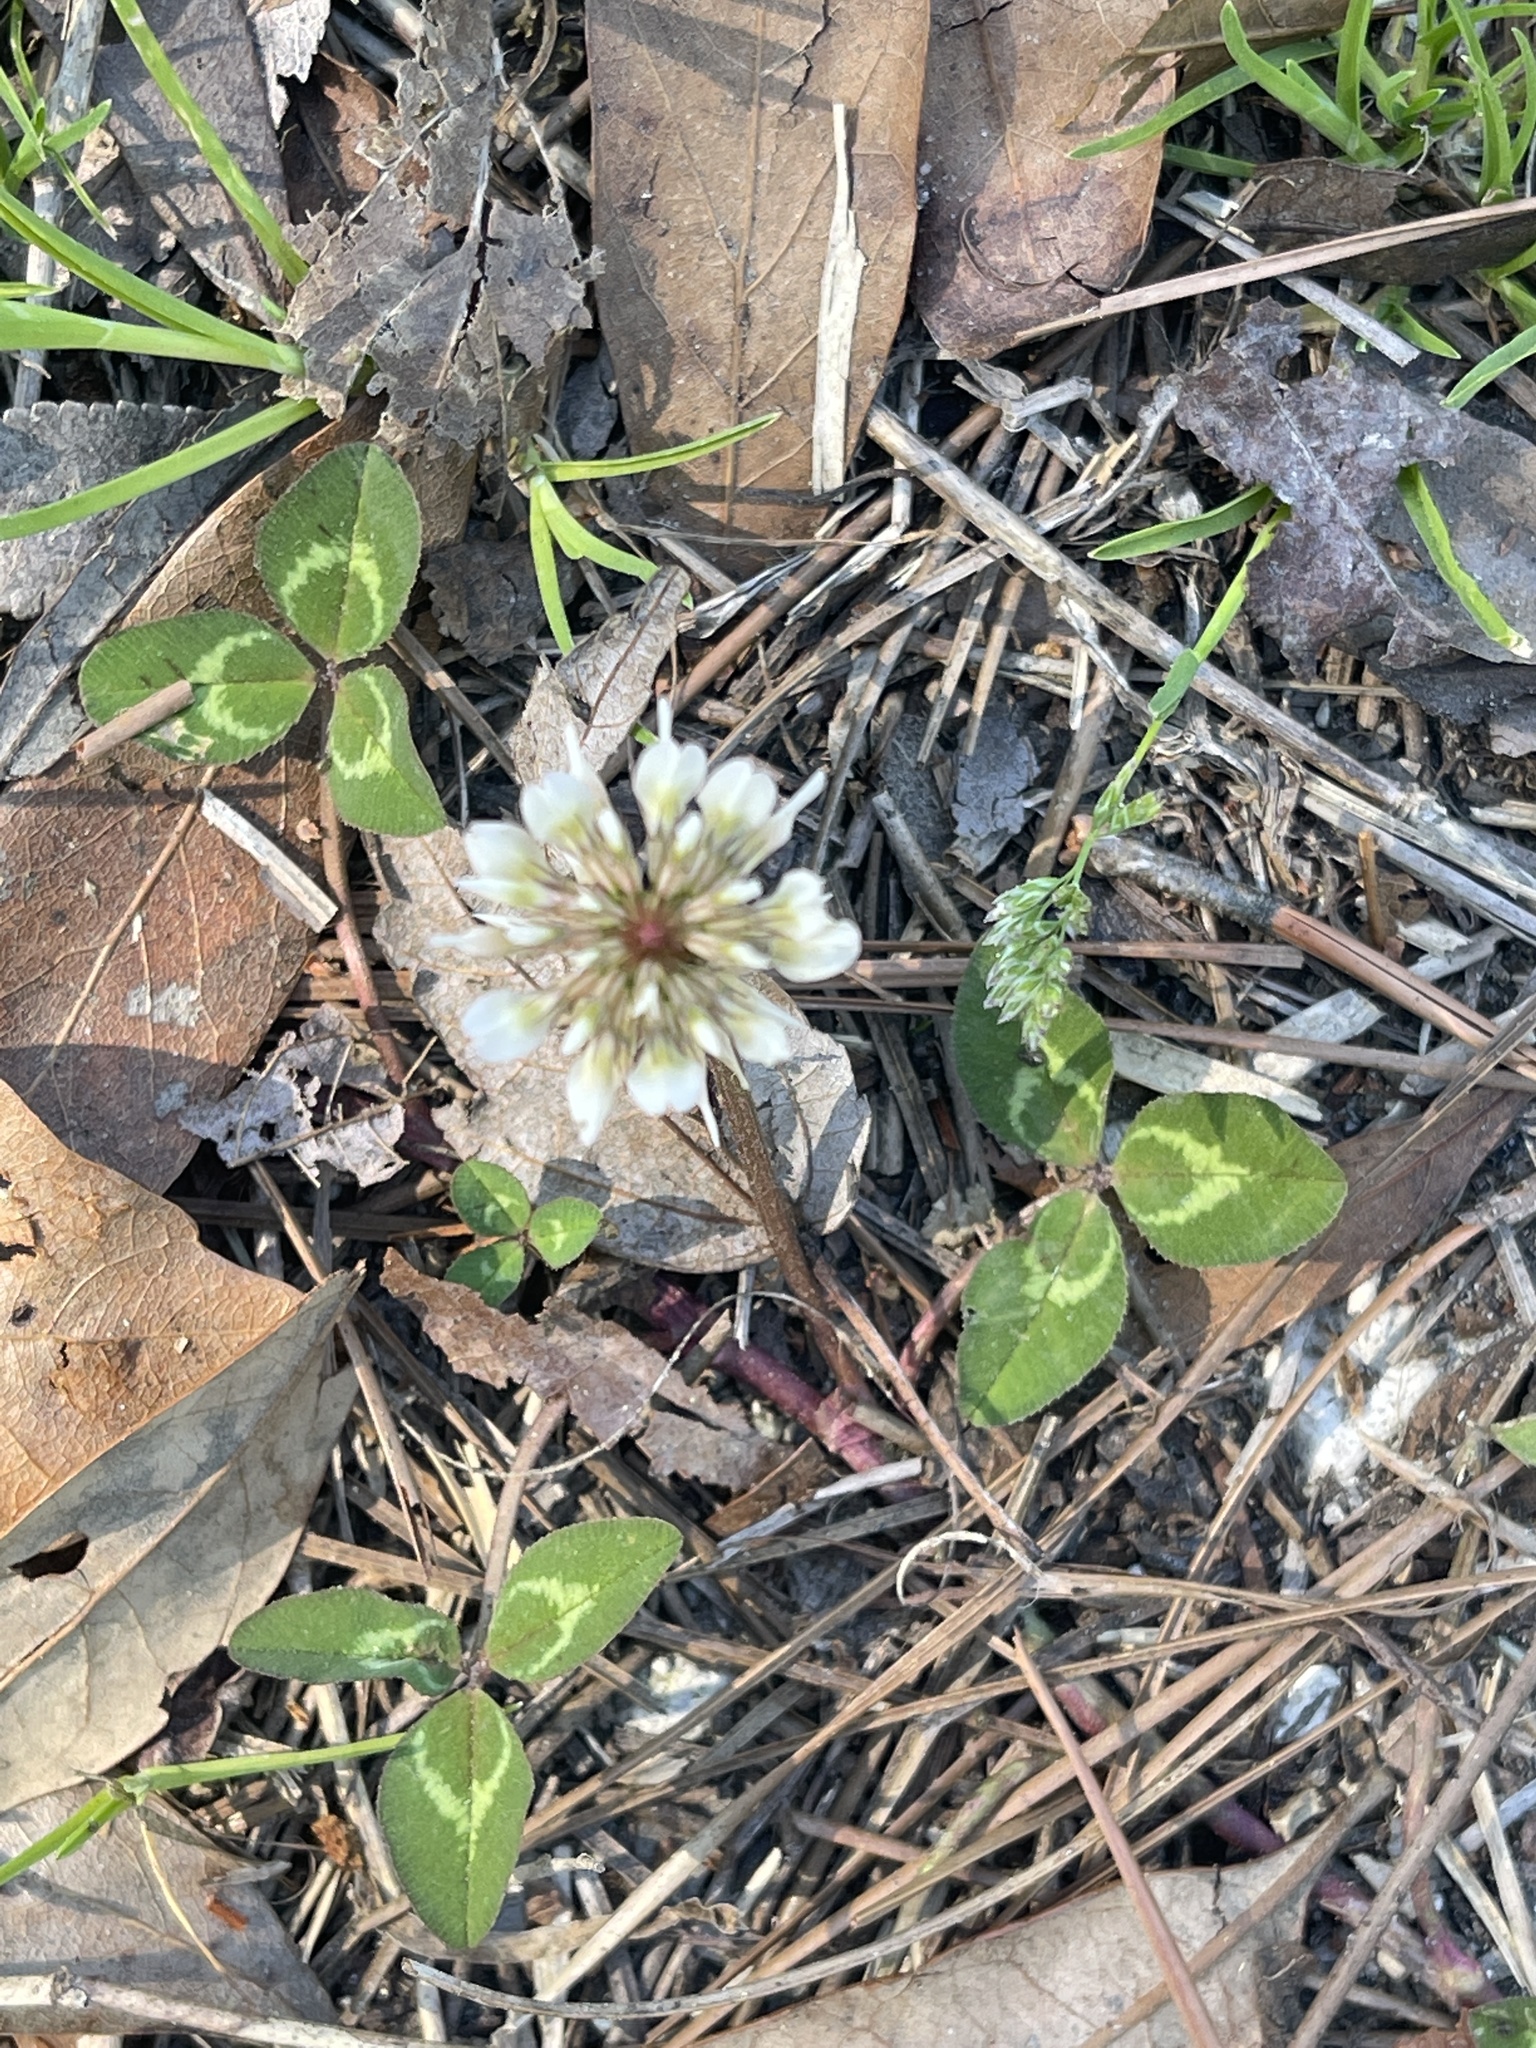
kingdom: Plantae
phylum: Tracheophyta
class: Magnoliopsida
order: Fabales
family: Fabaceae
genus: Trifolium
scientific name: Trifolium repens
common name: White clover
